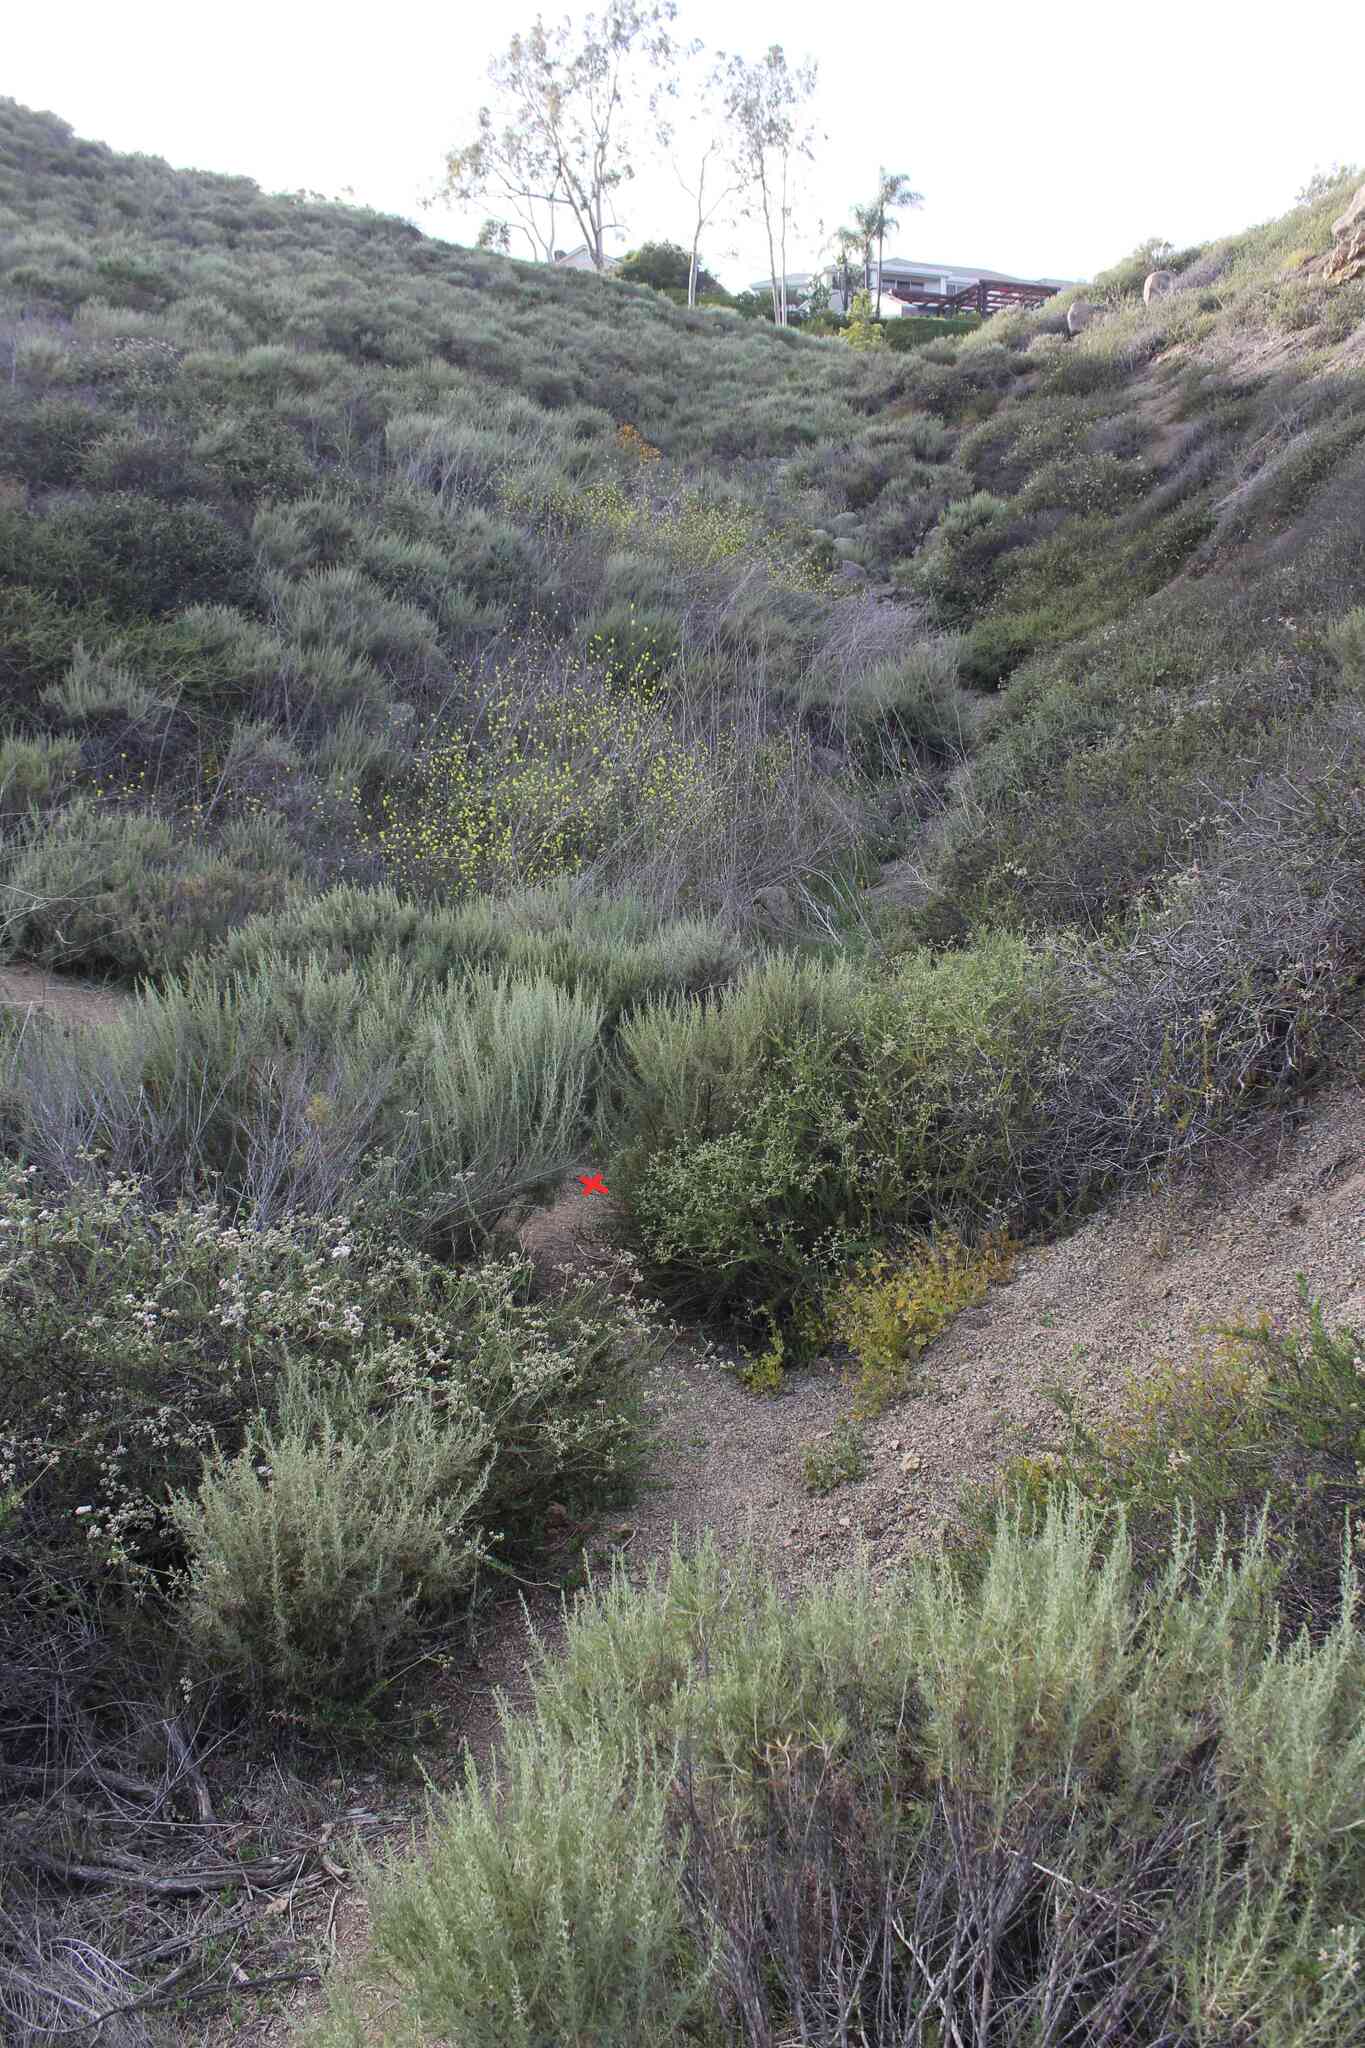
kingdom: Animalia
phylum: Chordata
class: Squamata
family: Colubridae
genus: Lampropeltis
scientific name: Lampropeltis californiae
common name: California kingsnake
